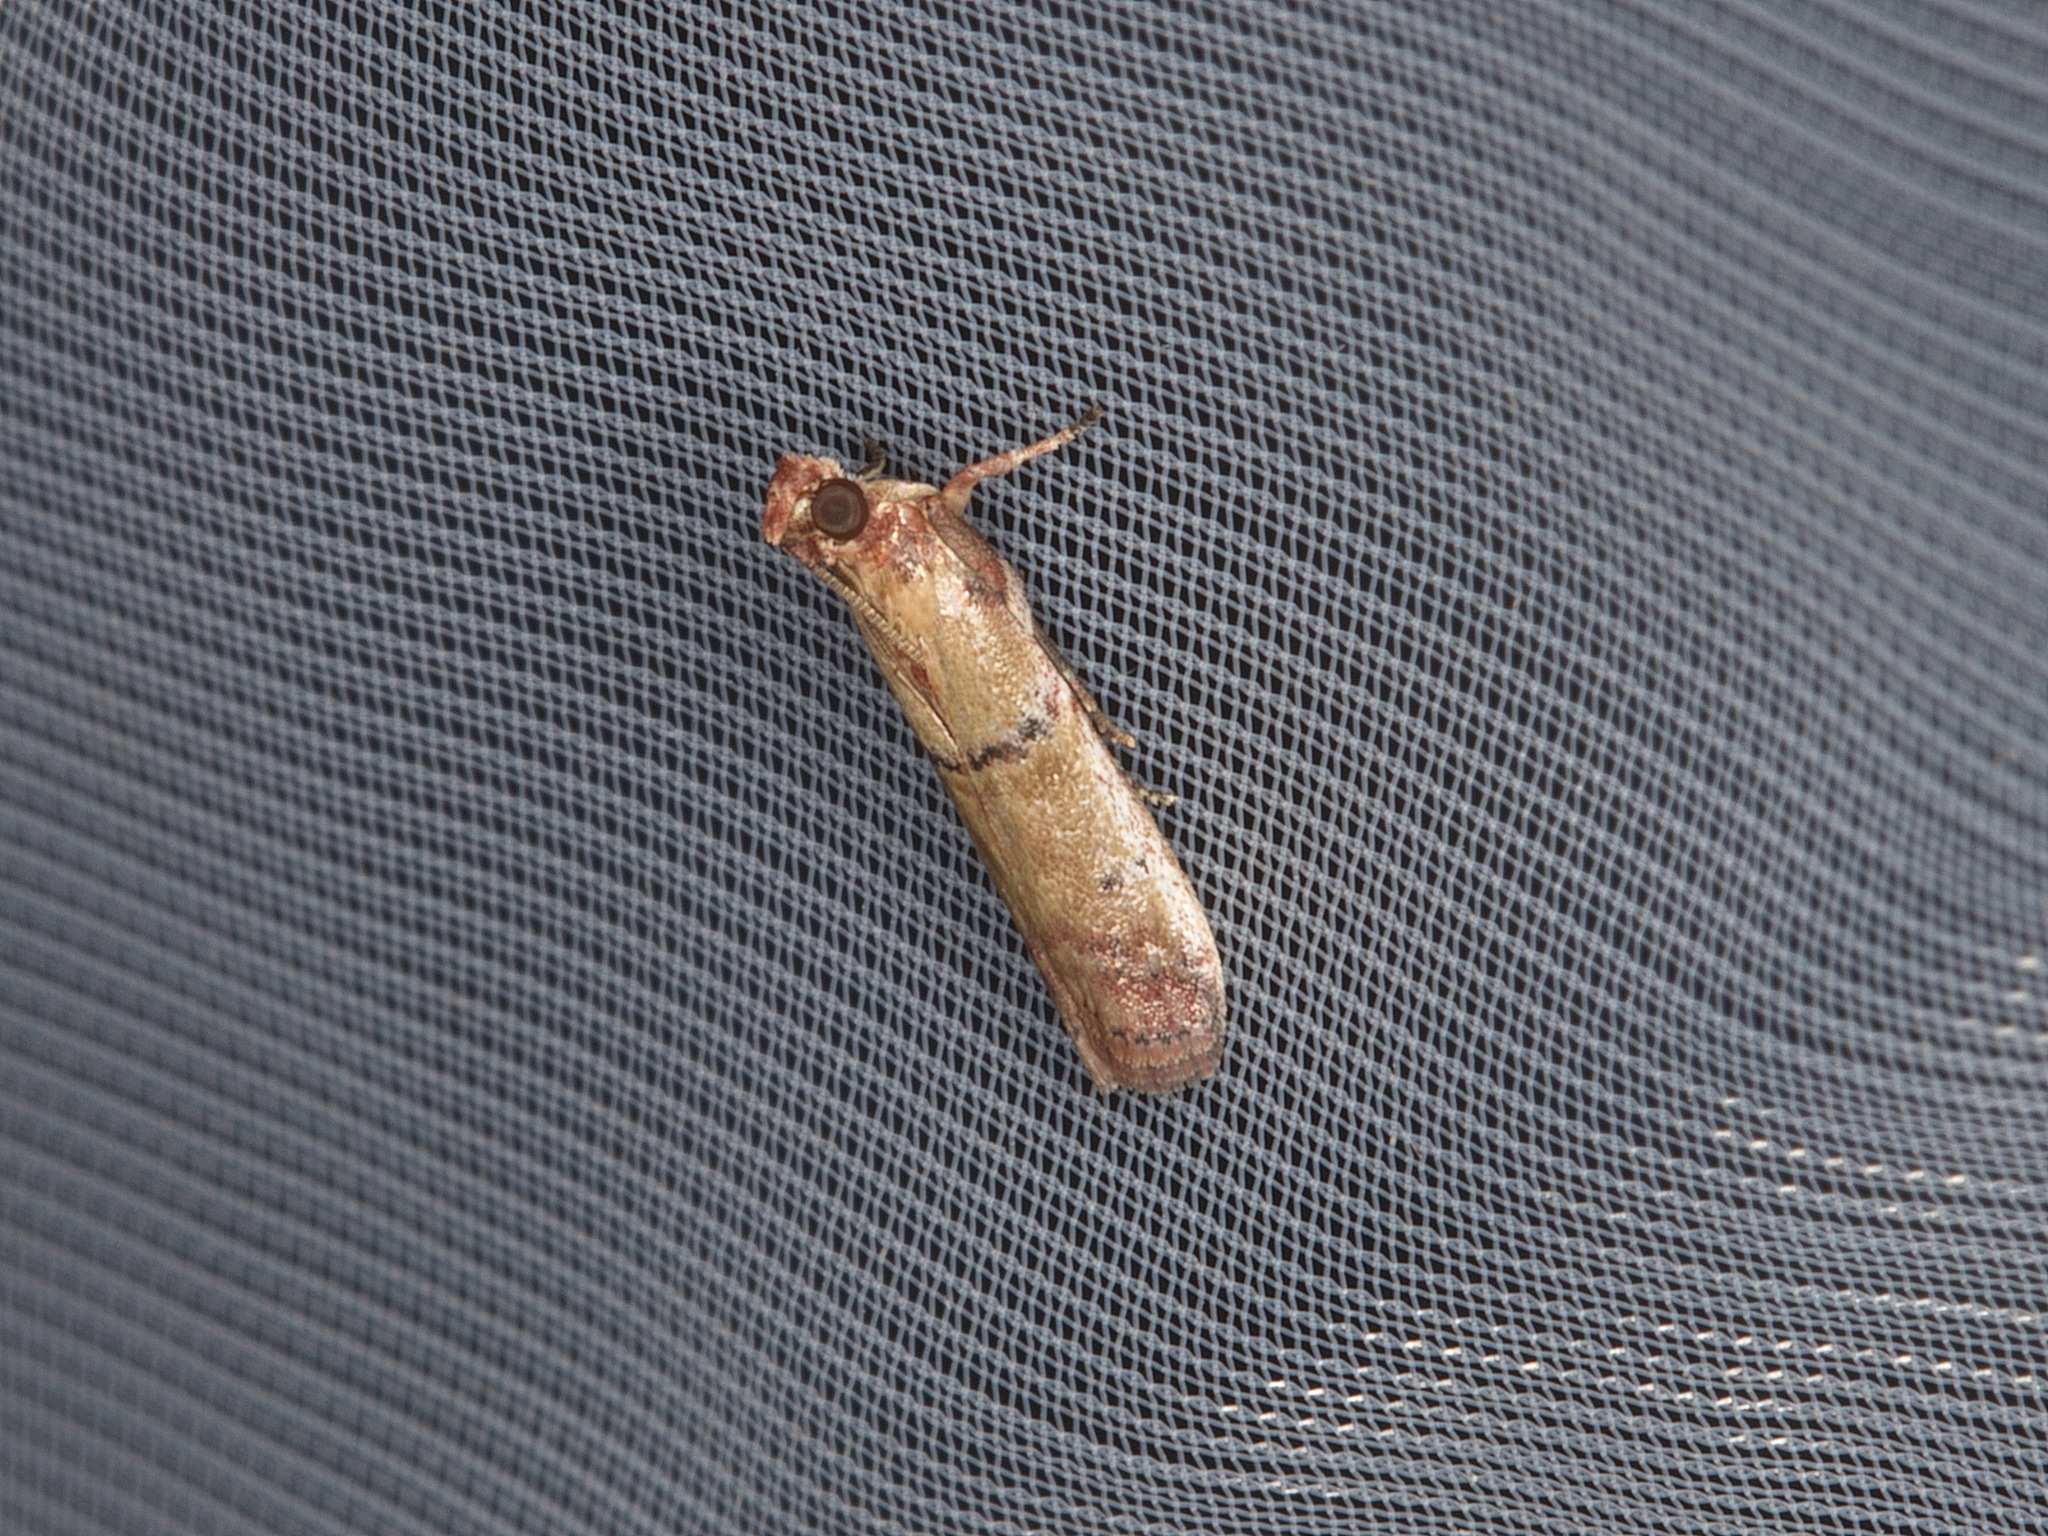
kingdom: Animalia
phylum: Arthropoda
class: Insecta
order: Lepidoptera
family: Pyralidae
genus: Atheloca
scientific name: Atheloca subrufella
